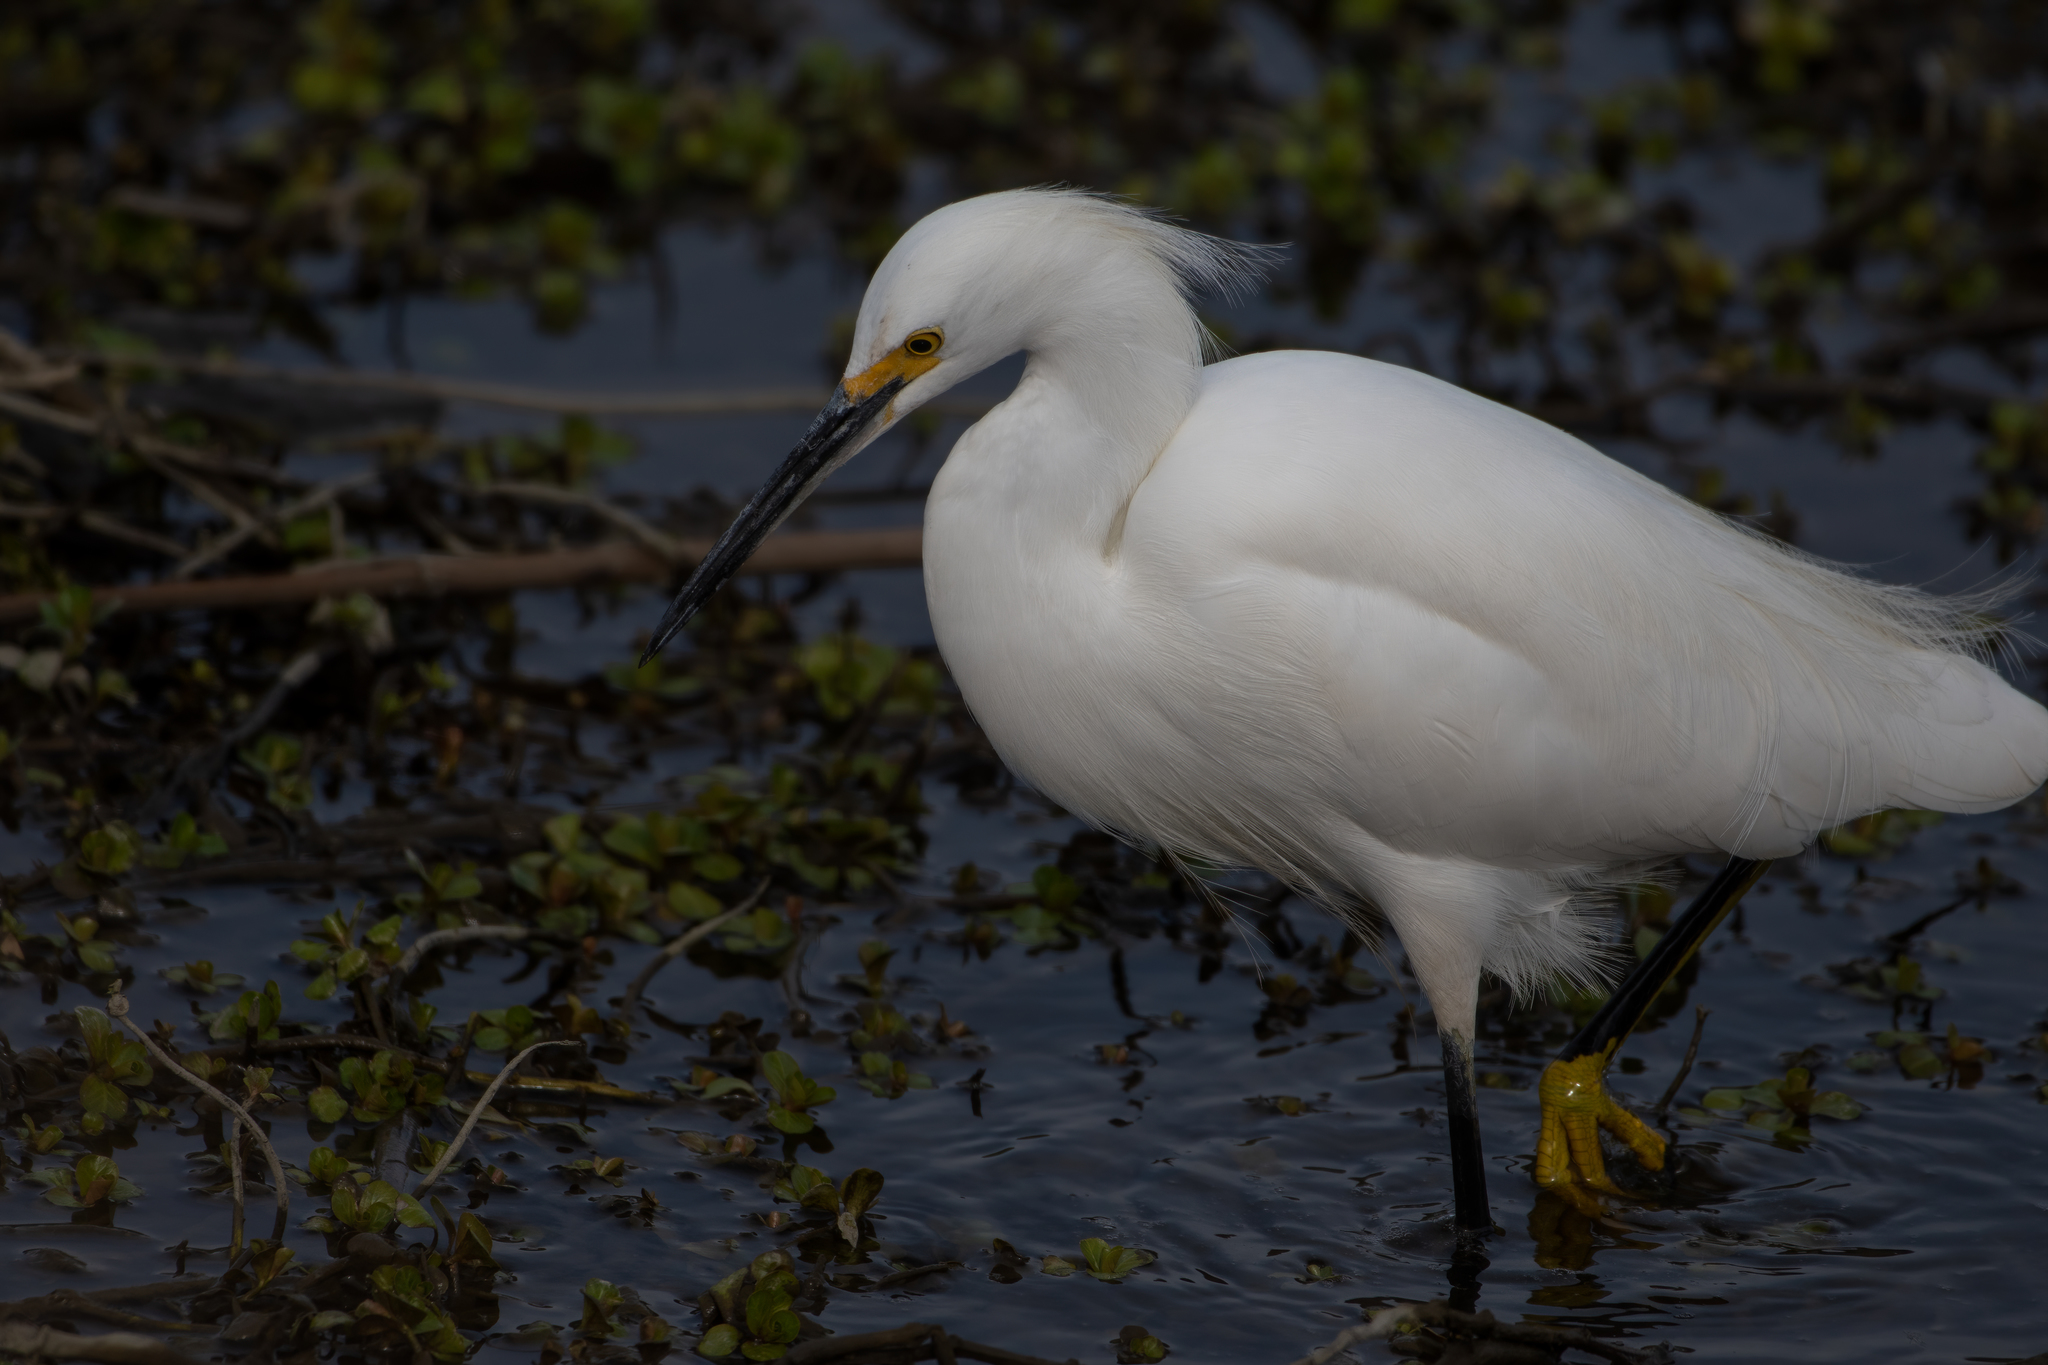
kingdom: Animalia
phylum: Chordata
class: Aves
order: Pelecaniformes
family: Ardeidae
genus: Egretta
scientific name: Egretta thula
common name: Snowy egret
